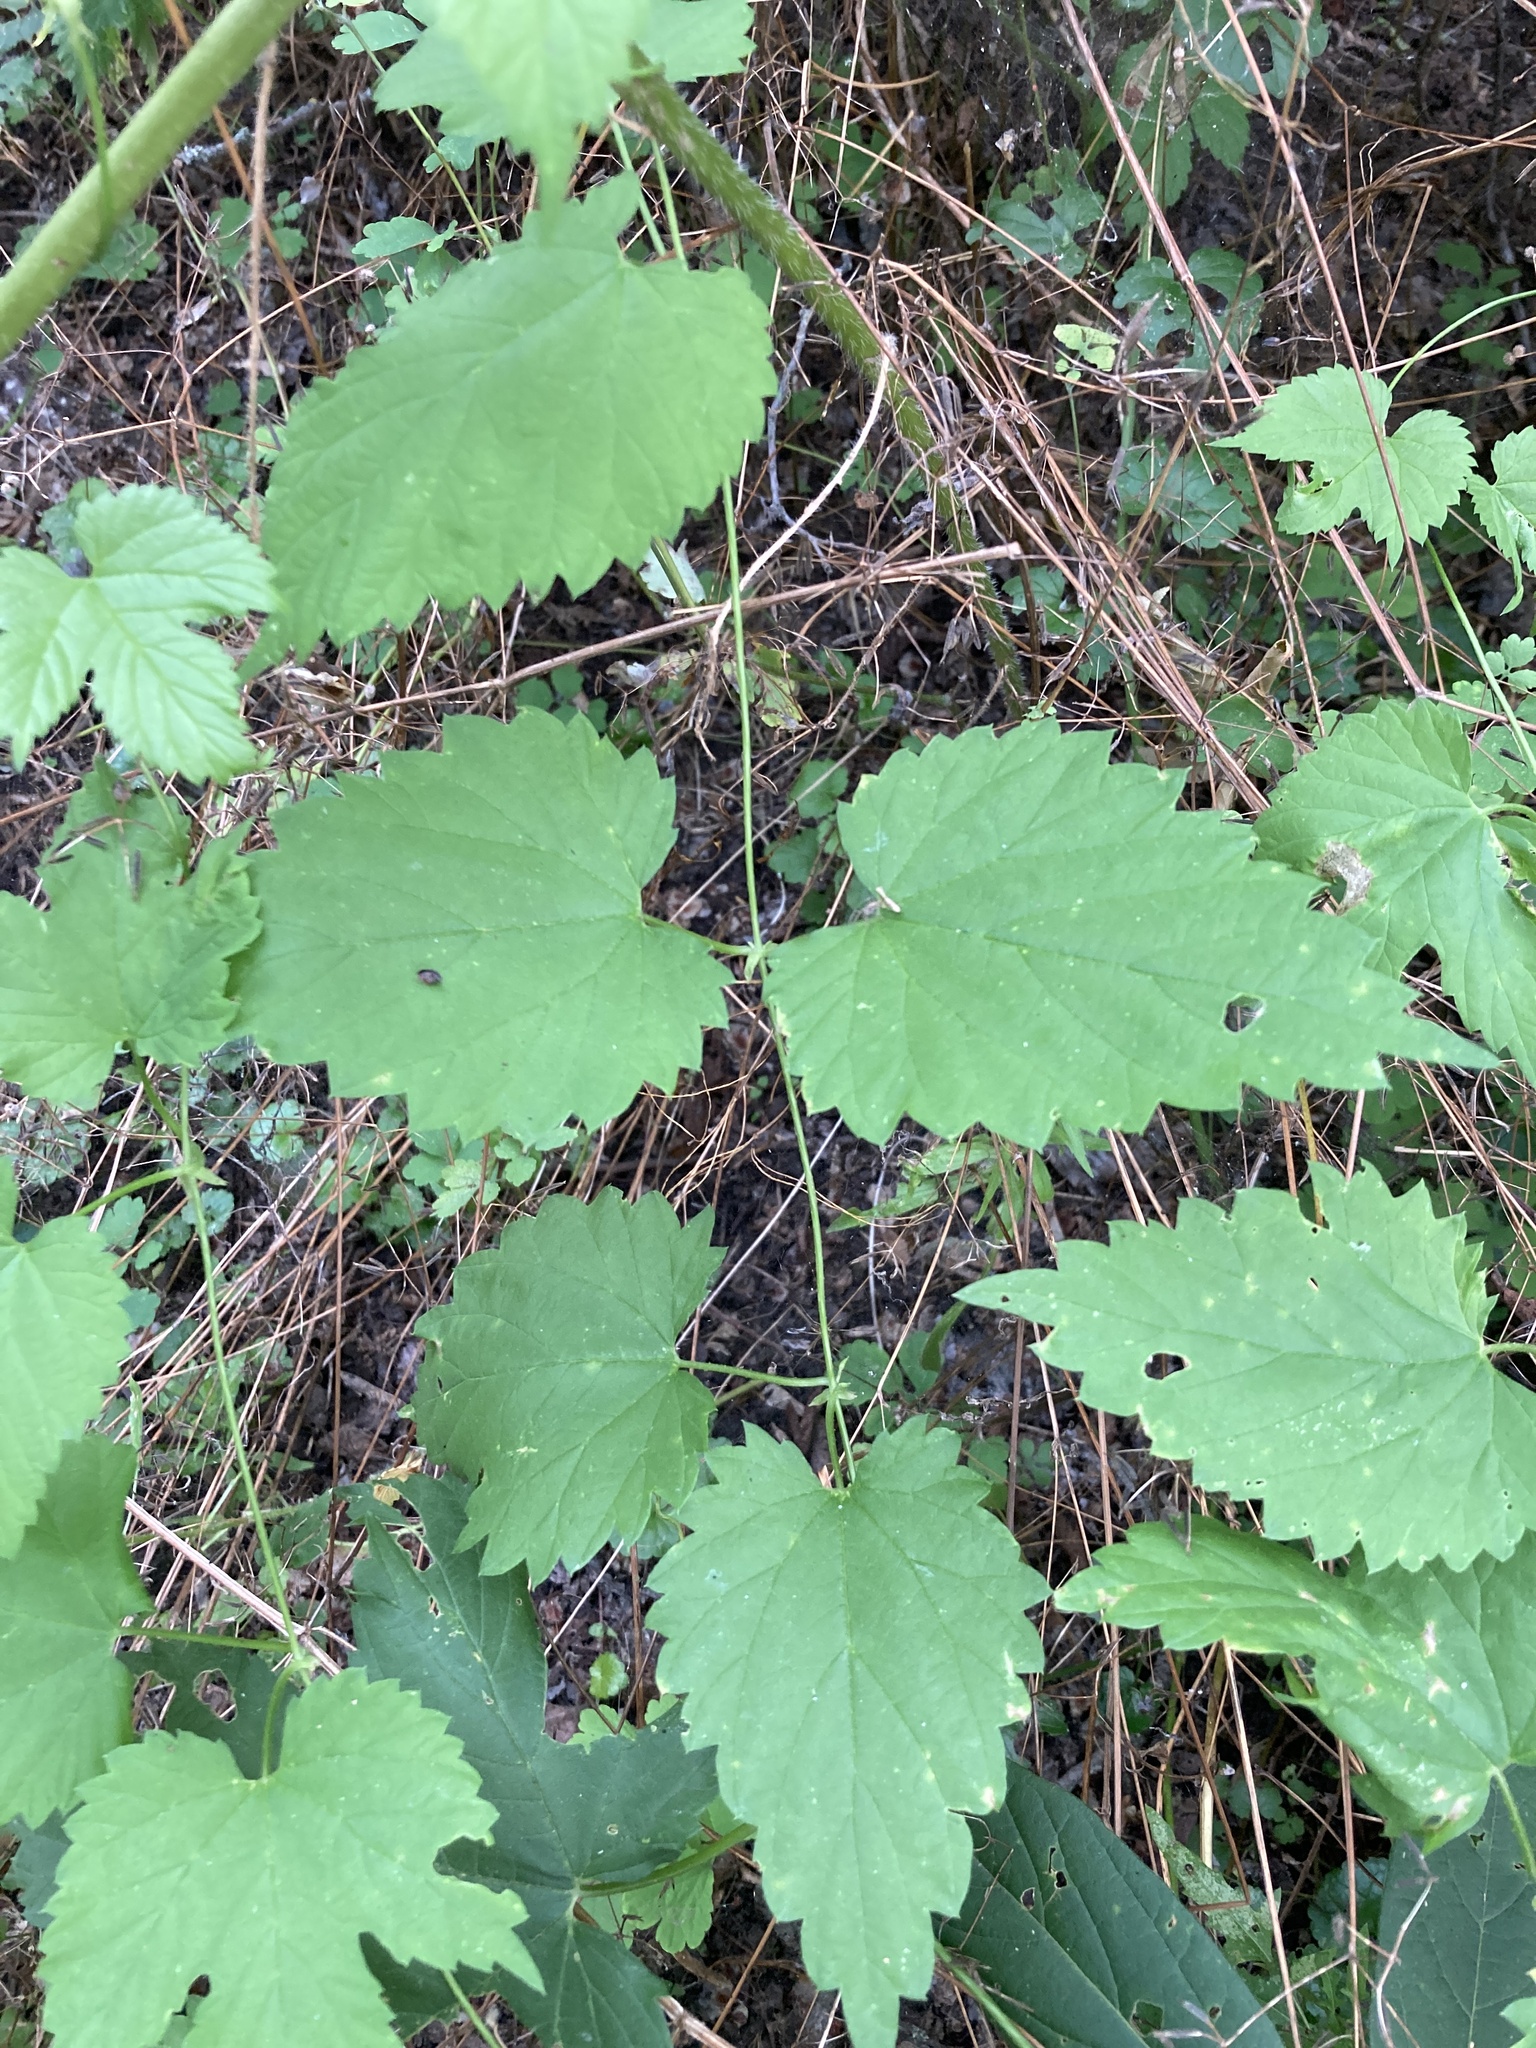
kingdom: Plantae
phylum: Tracheophyta
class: Magnoliopsida
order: Rosales
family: Cannabaceae
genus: Humulus
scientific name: Humulus lupulus
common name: Hop
